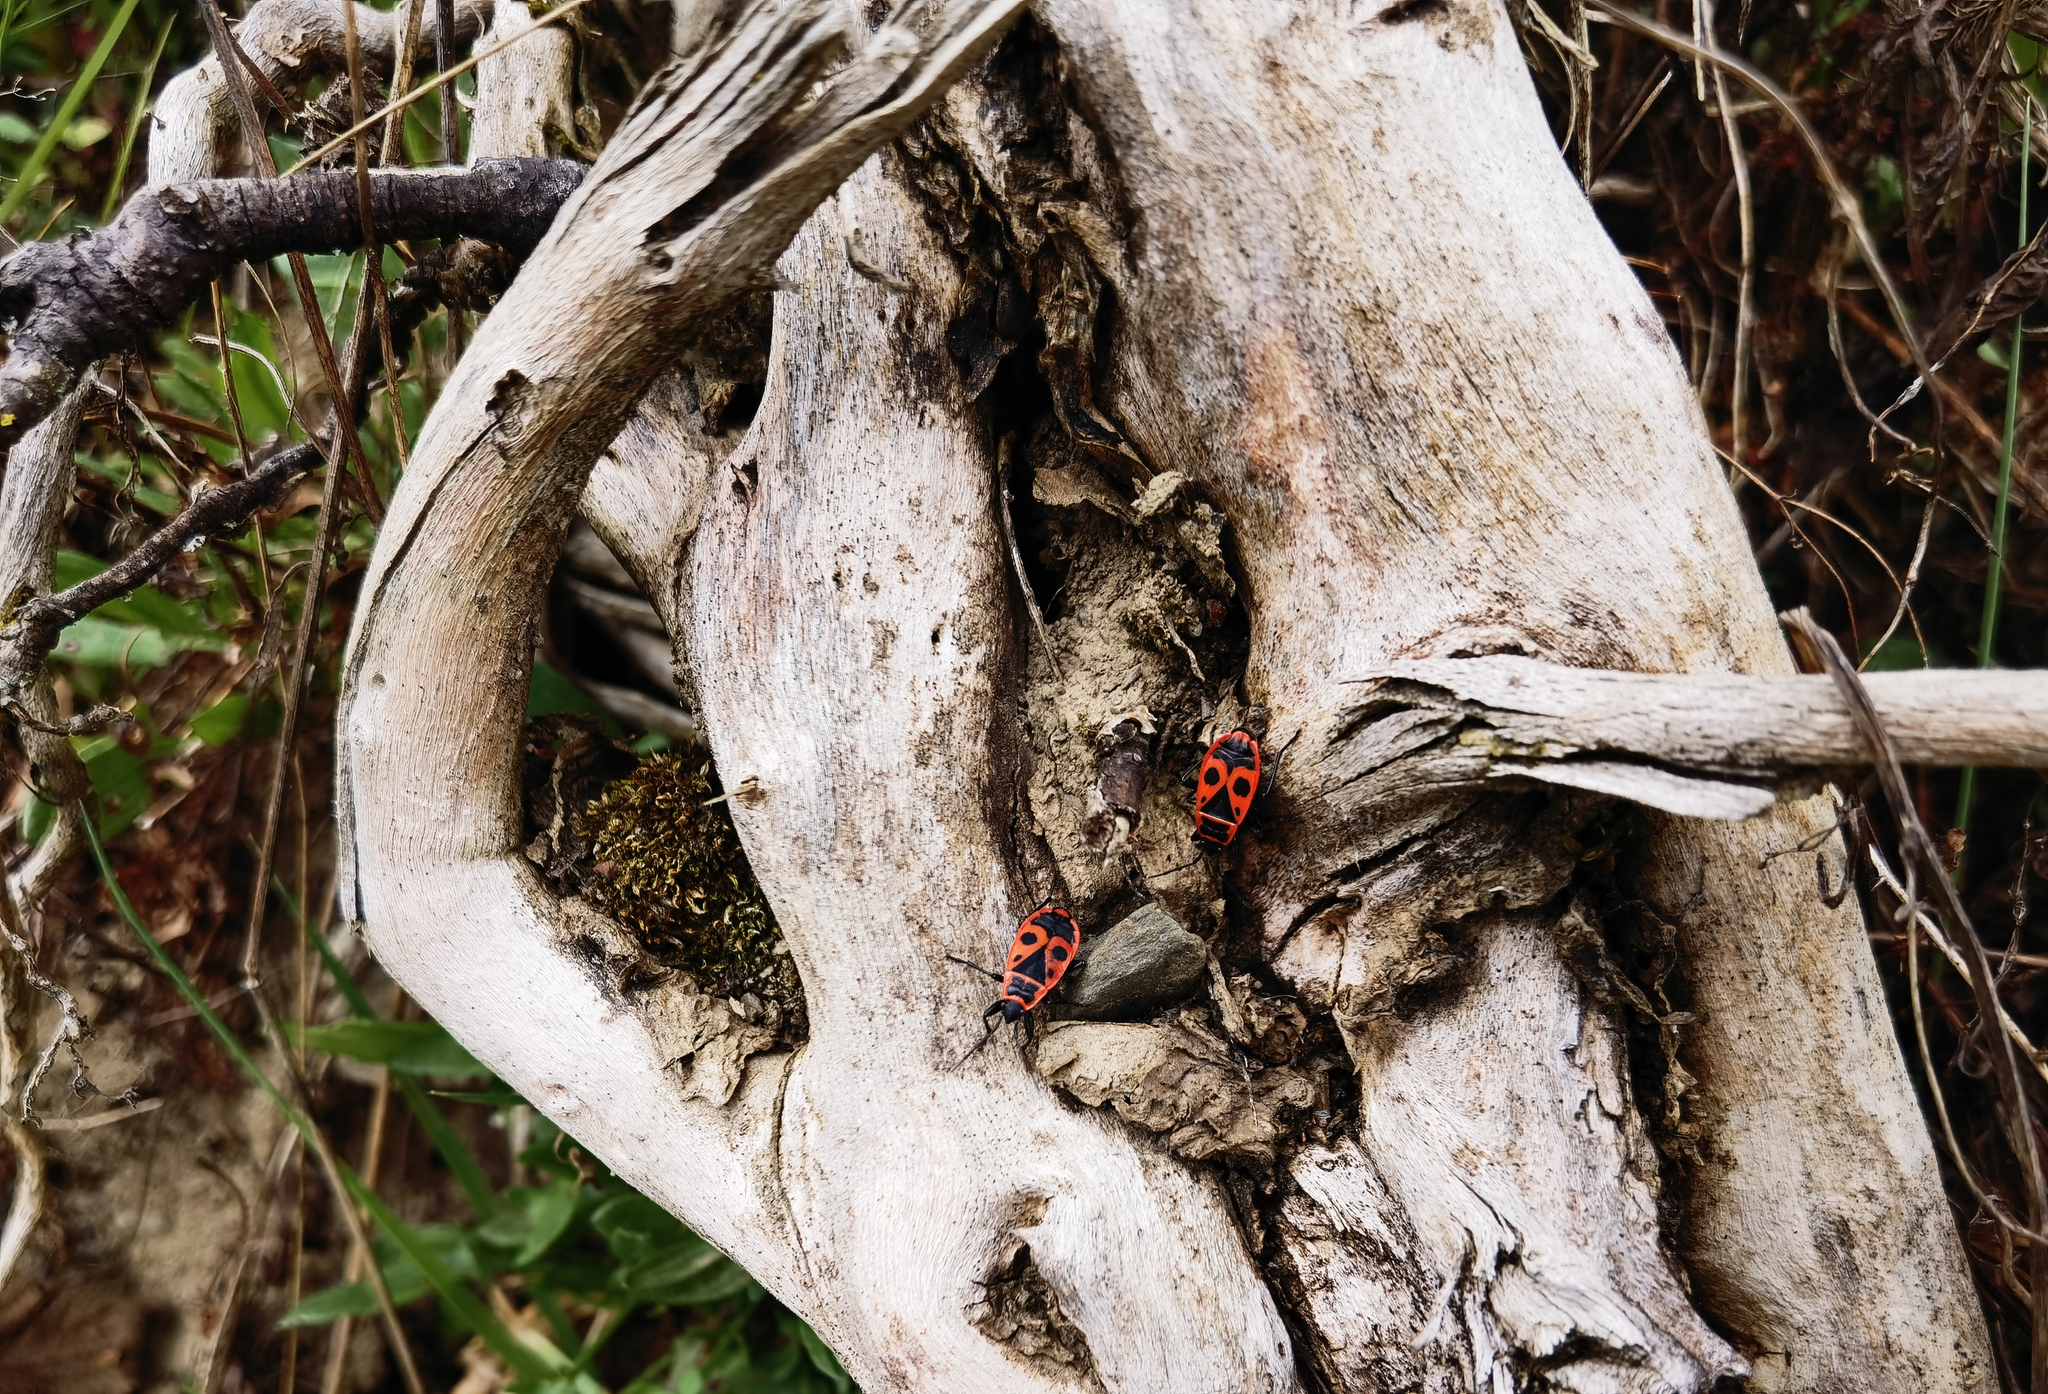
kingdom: Animalia
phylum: Arthropoda
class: Insecta
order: Hemiptera
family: Pyrrhocoridae
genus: Pyrrhocoris
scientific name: Pyrrhocoris apterus
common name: Firebug
